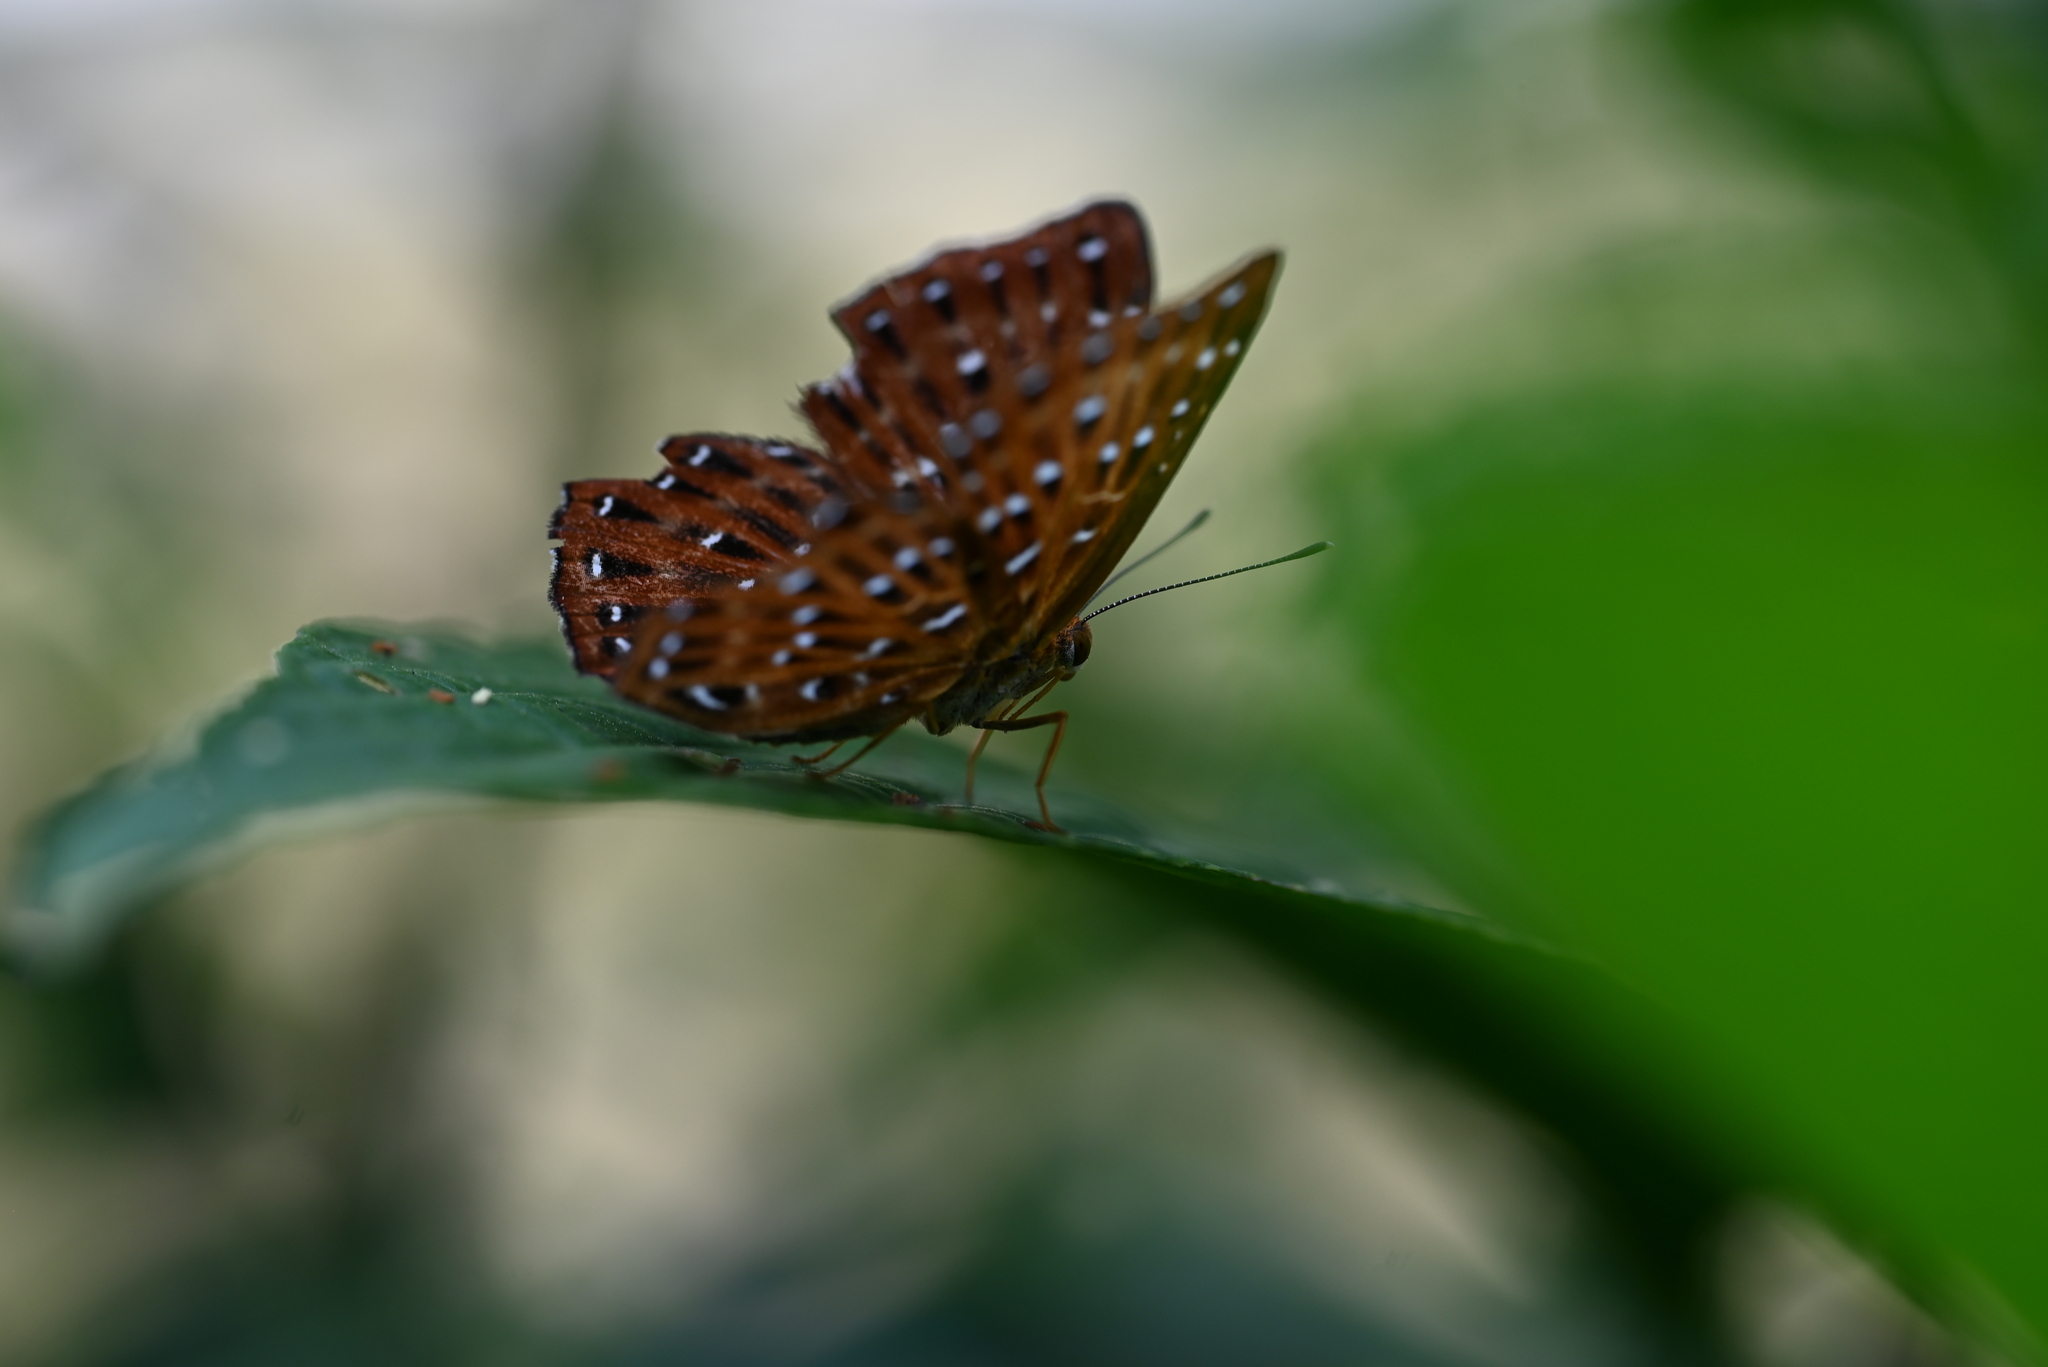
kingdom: Animalia
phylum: Arthropoda
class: Insecta
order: Lepidoptera
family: Riodinidae
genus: Zemeros
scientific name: Zemeros flegyas
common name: Punchinello
